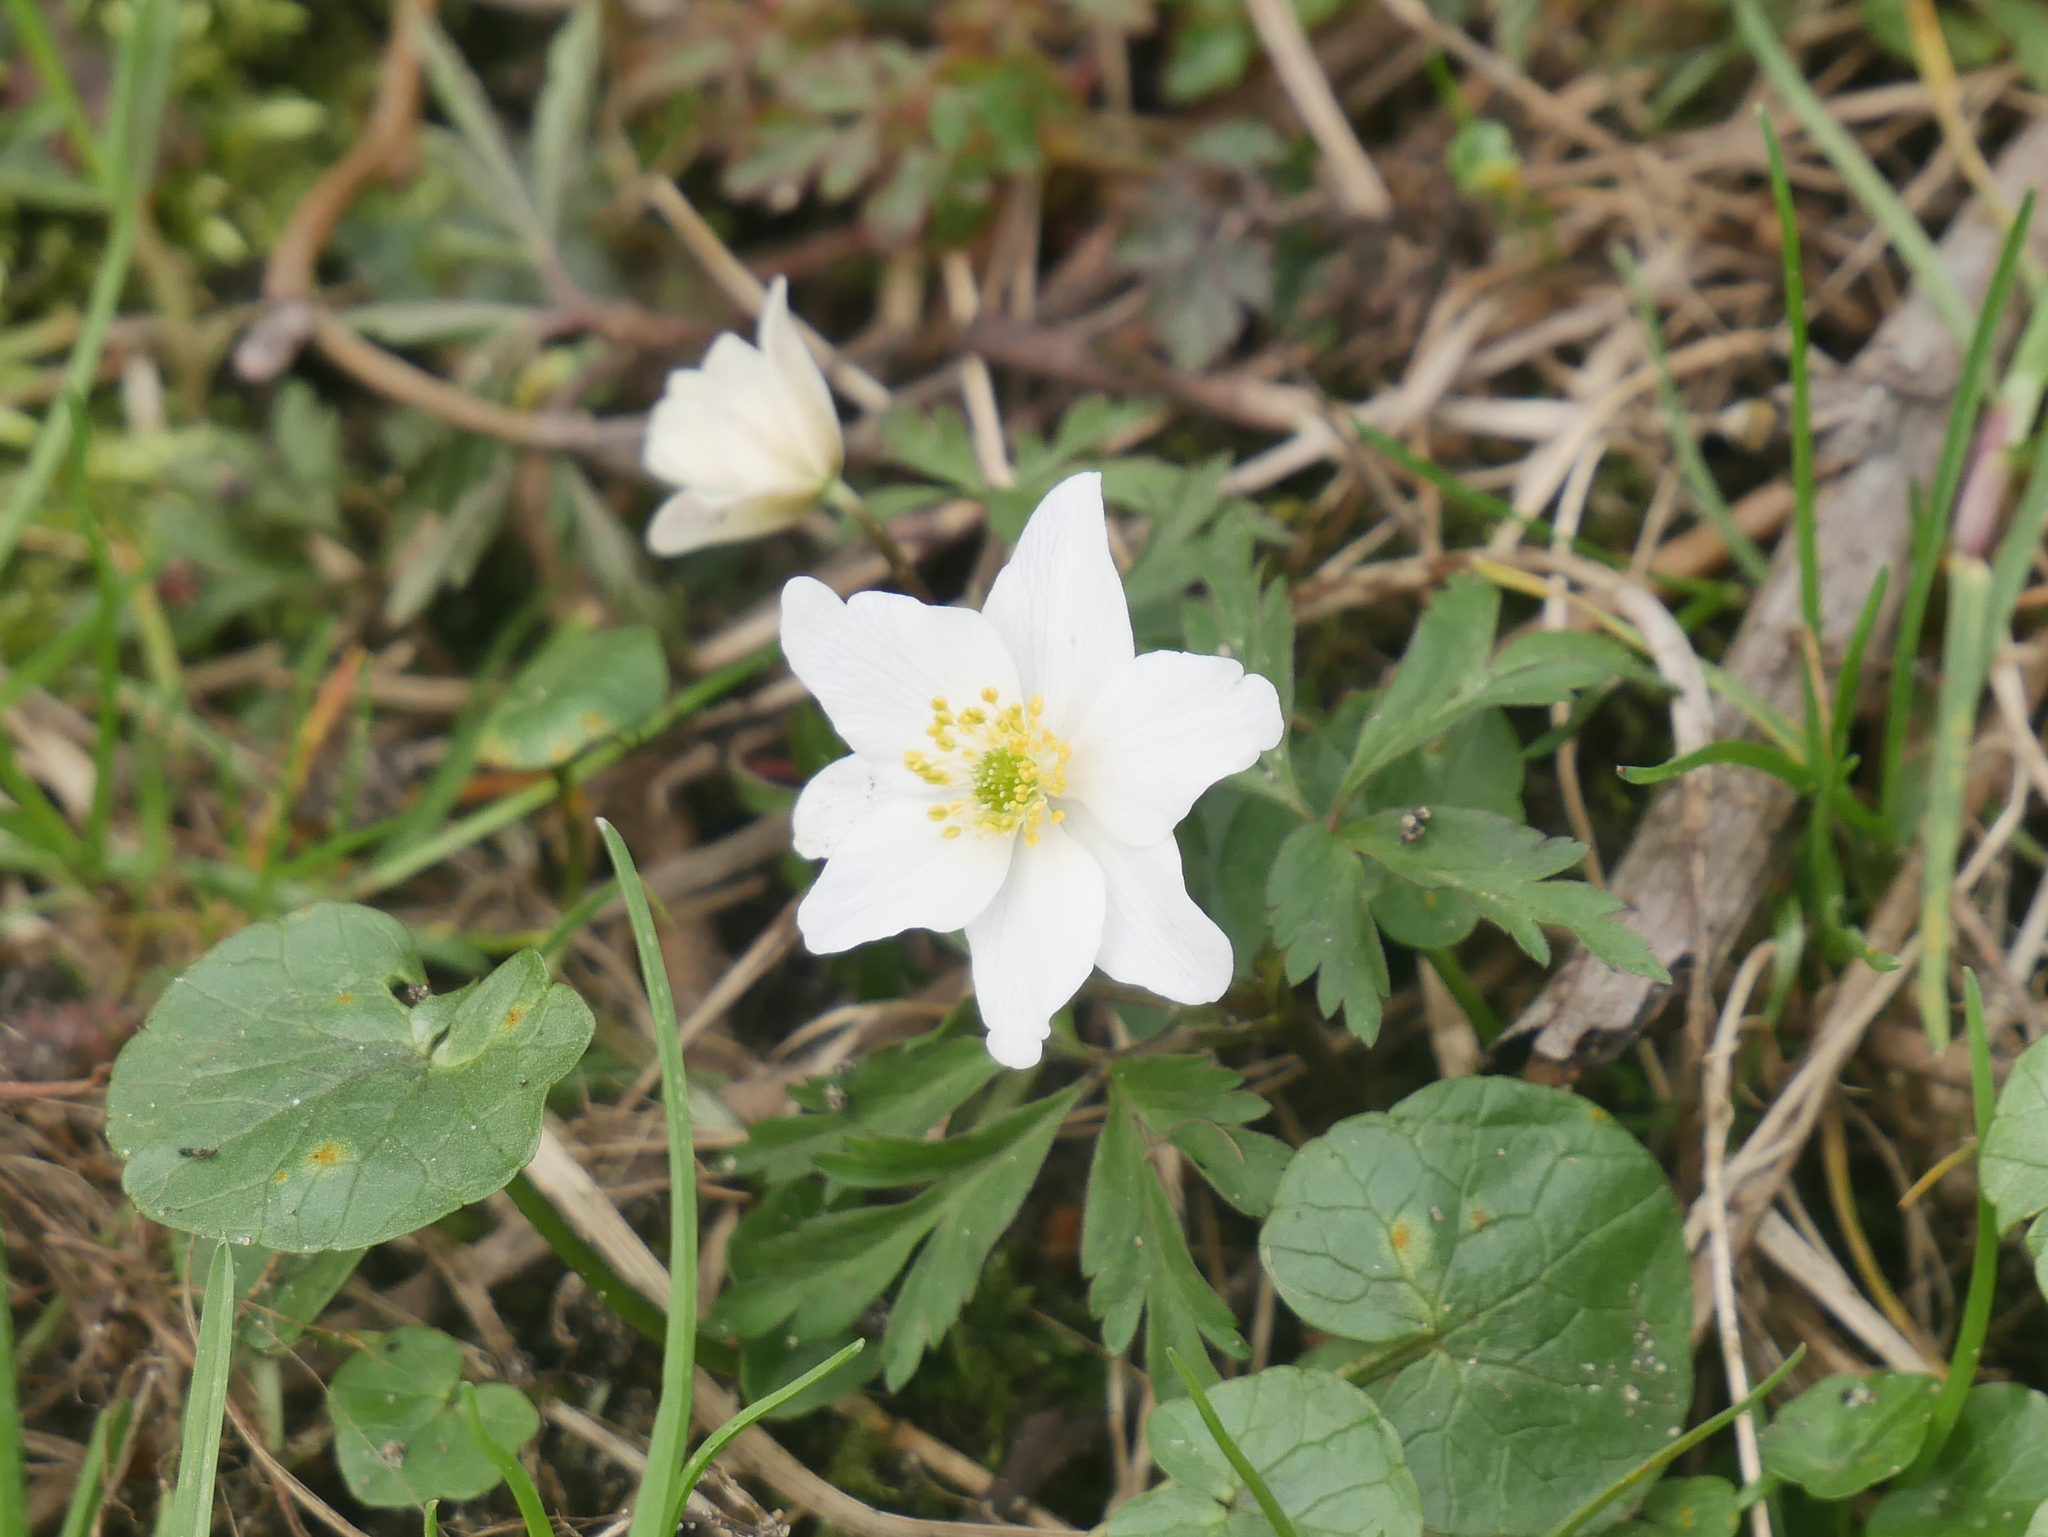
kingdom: Plantae
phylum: Tracheophyta
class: Magnoliopsida
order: Ranunculales
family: Ranunculaceae
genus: Anemone
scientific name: Anemone nemorosa
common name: Wood anemone
